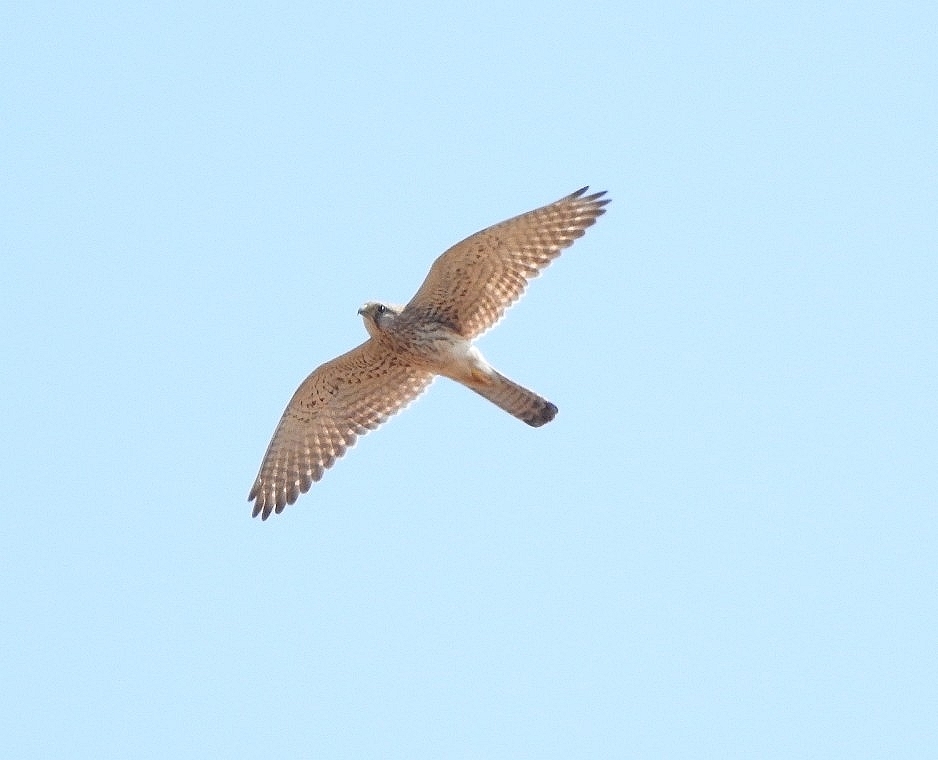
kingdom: Animalia
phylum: Chordata
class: Aves
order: Falconiformes
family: Falconidae
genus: Falco
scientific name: Falco tinnunculus
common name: Common kestrel
